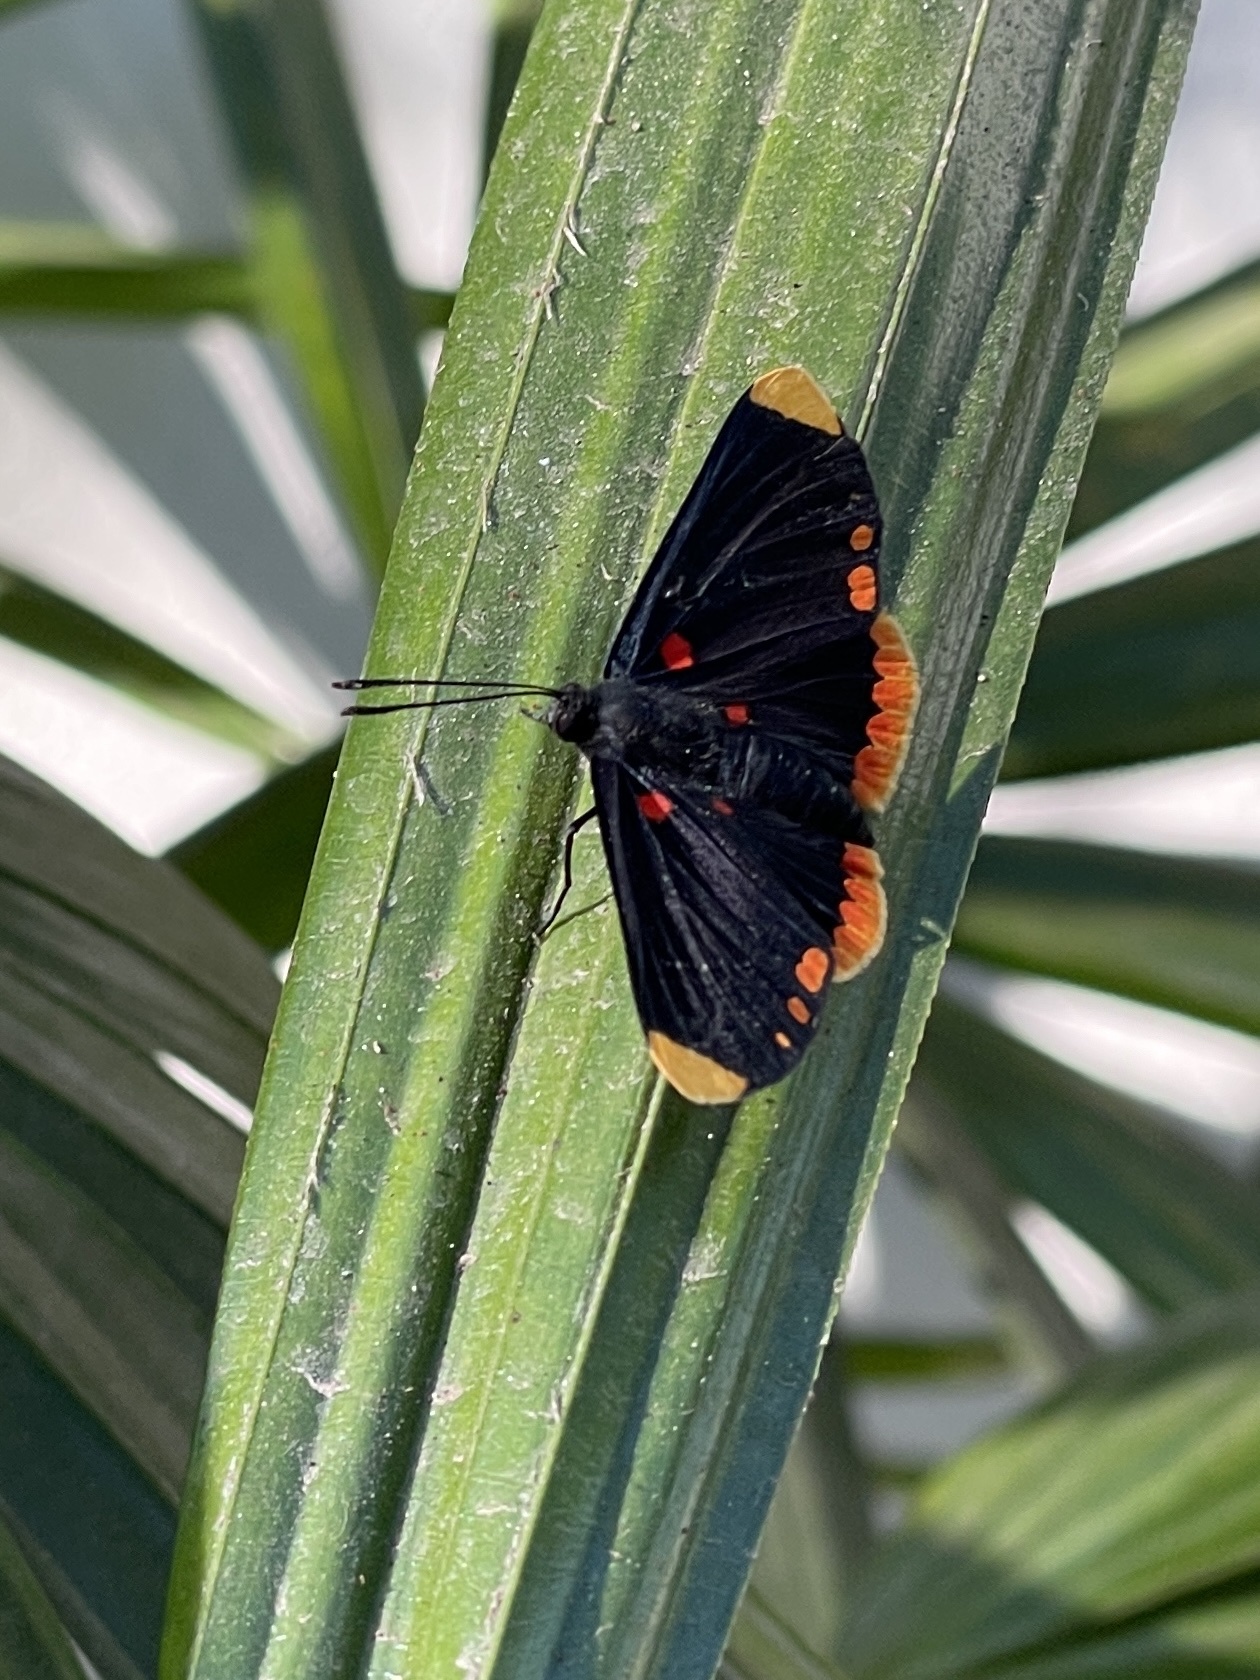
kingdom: Animalia
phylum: Arthropoda
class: Insecta
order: Lepidoptera
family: Lycaenidae
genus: Melanis
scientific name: Melanis pixe
